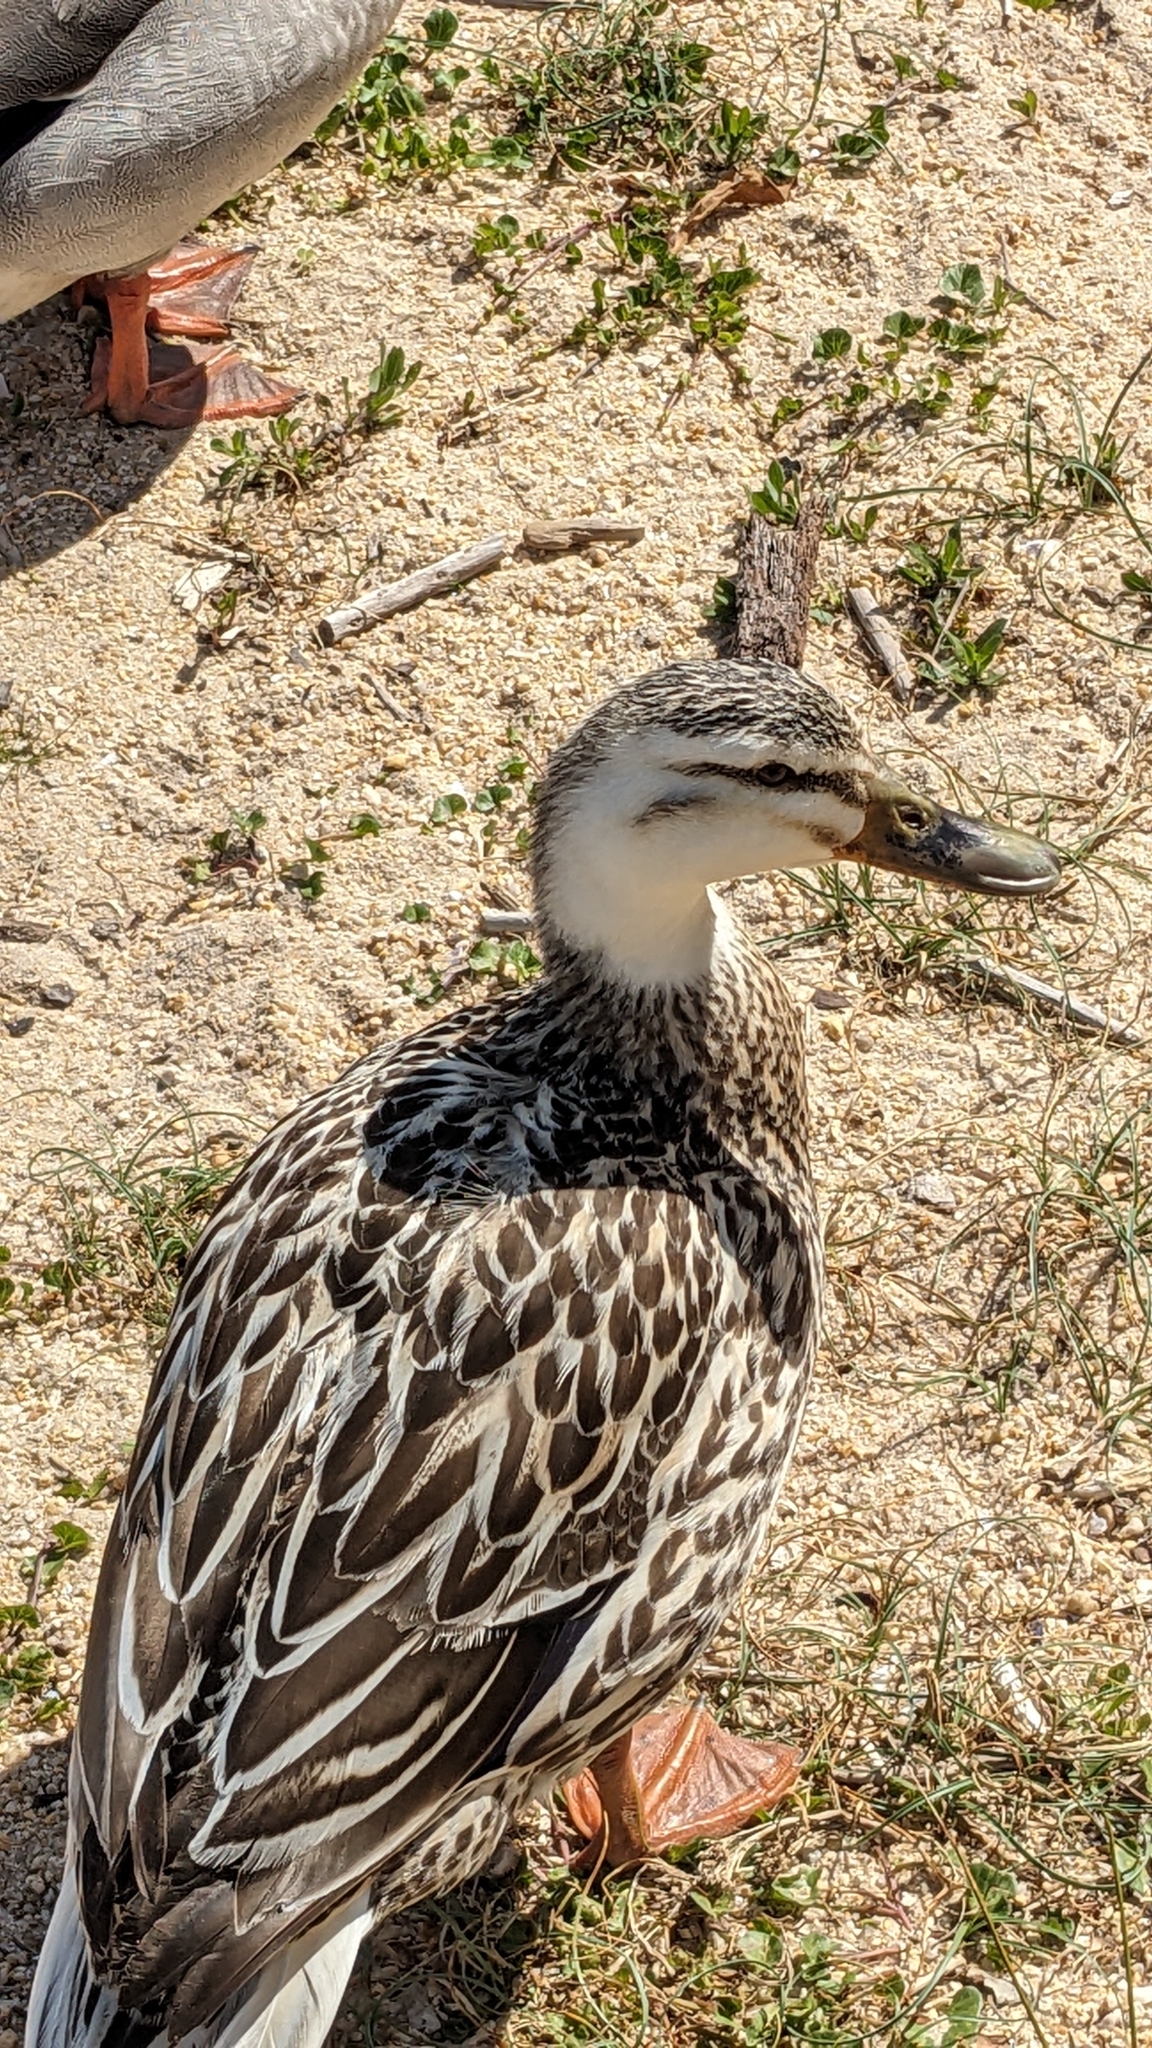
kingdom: Animalia
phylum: Chordata
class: Aves
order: Anseriformes
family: Anatidae
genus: Anas
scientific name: Anas platyrhynchos
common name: Mallard
